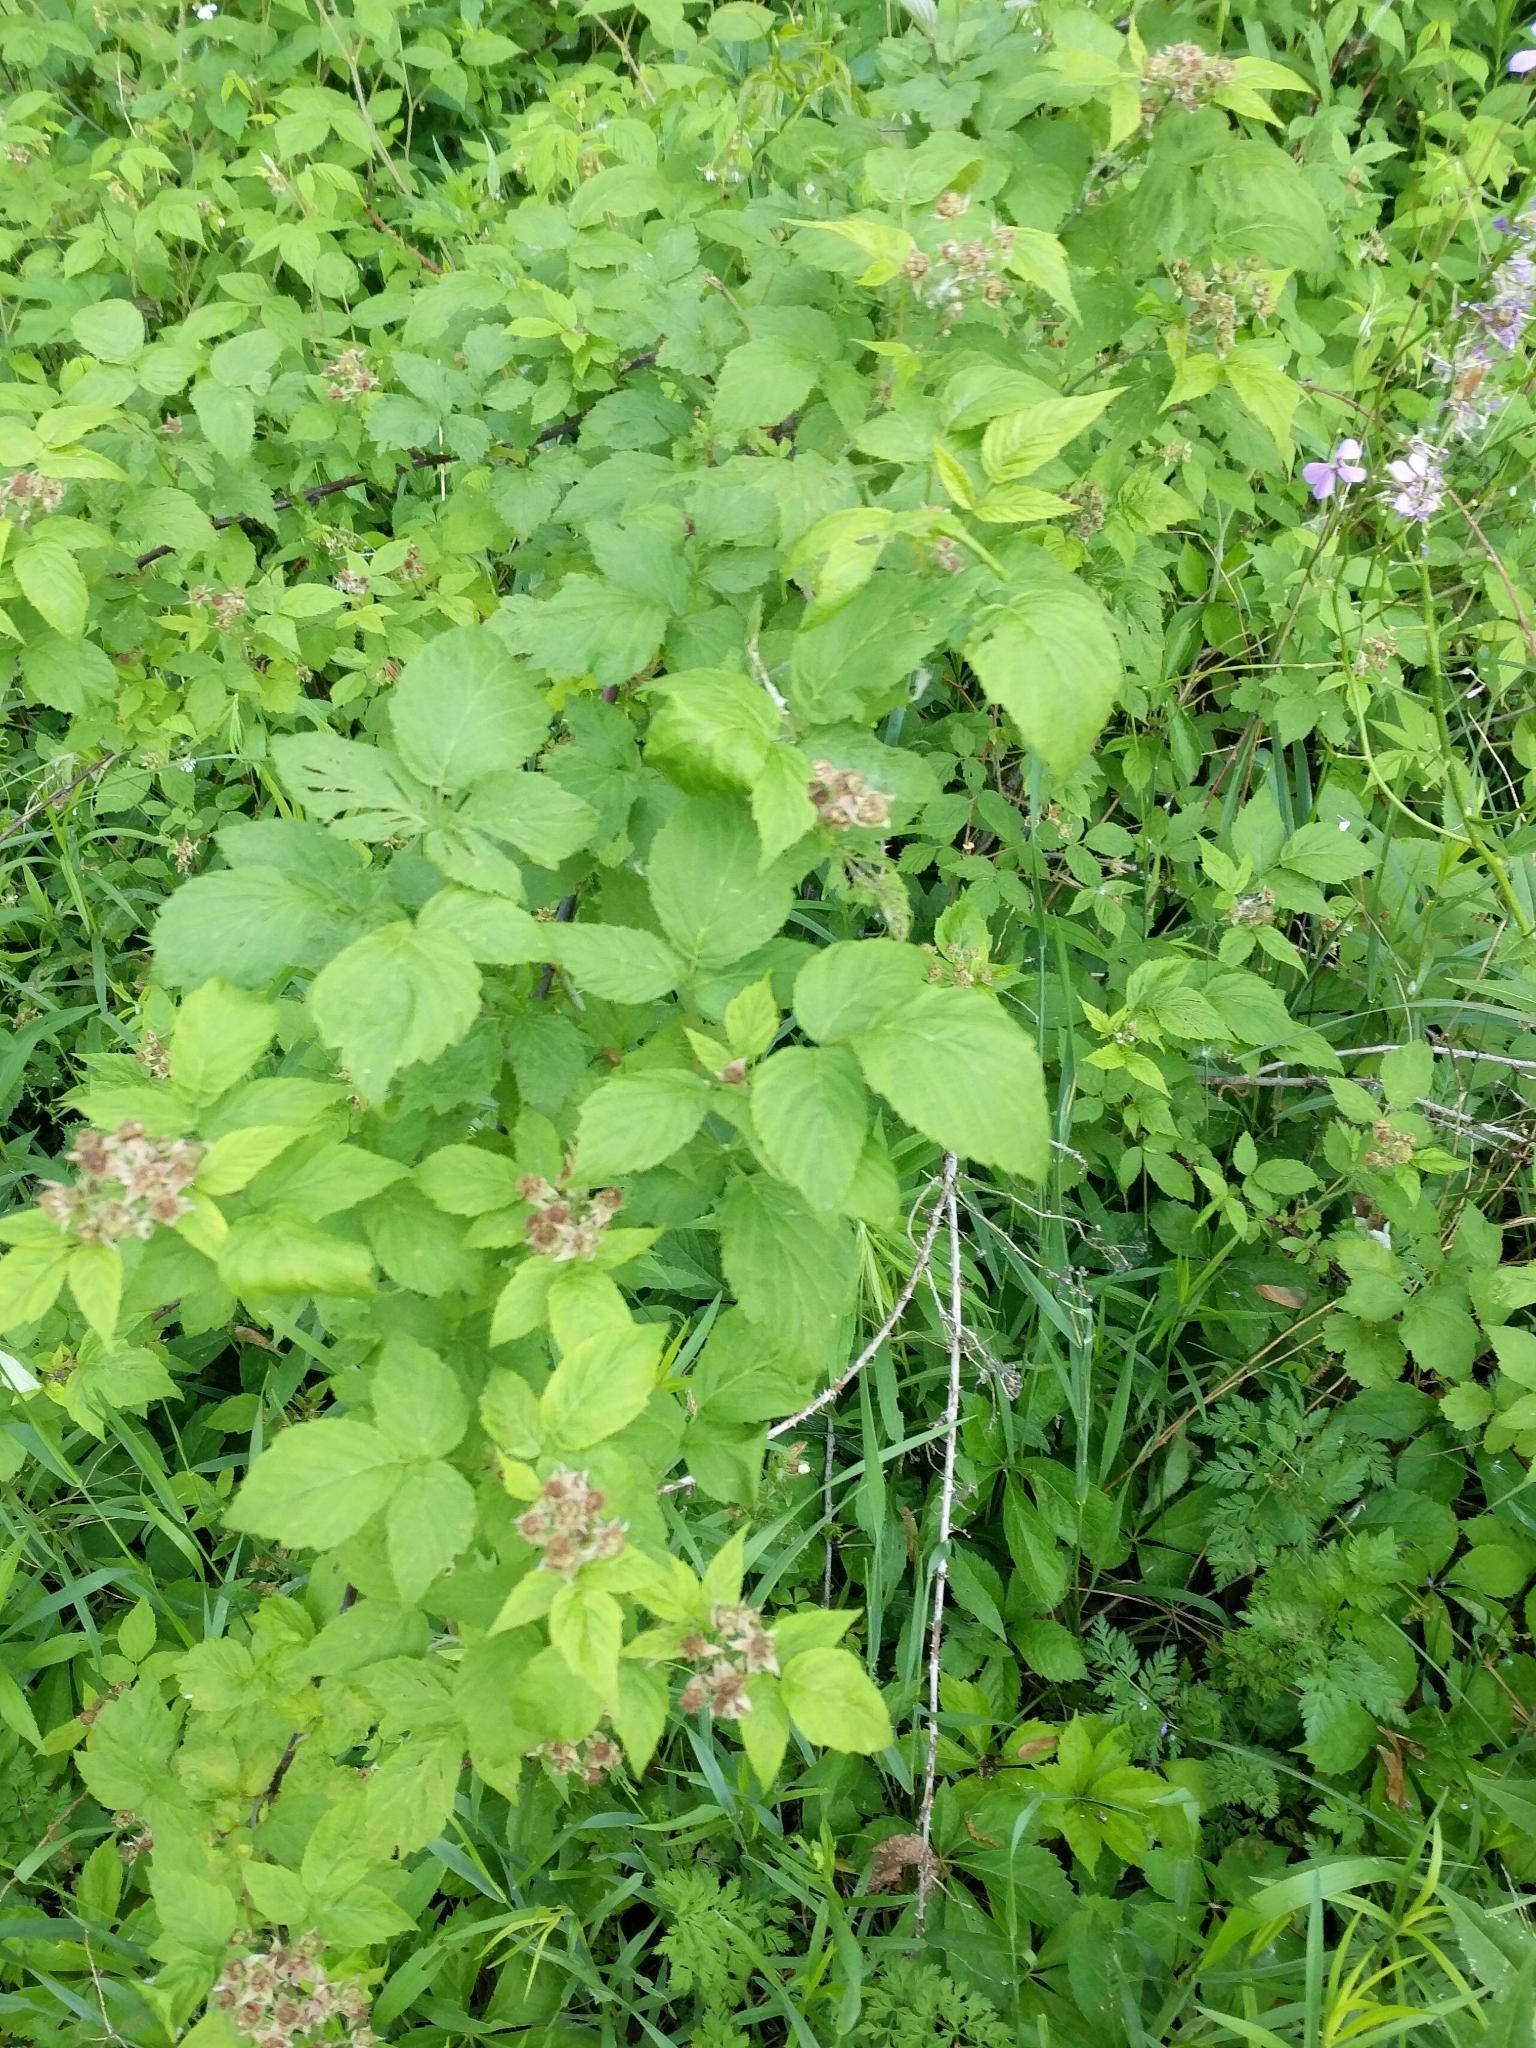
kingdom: Plantae
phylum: Tracheophyta
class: Magnoliopsida
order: Rosales
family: Rosaceae
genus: Rubus
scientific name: Rubus occidentalis
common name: Black raspberry
